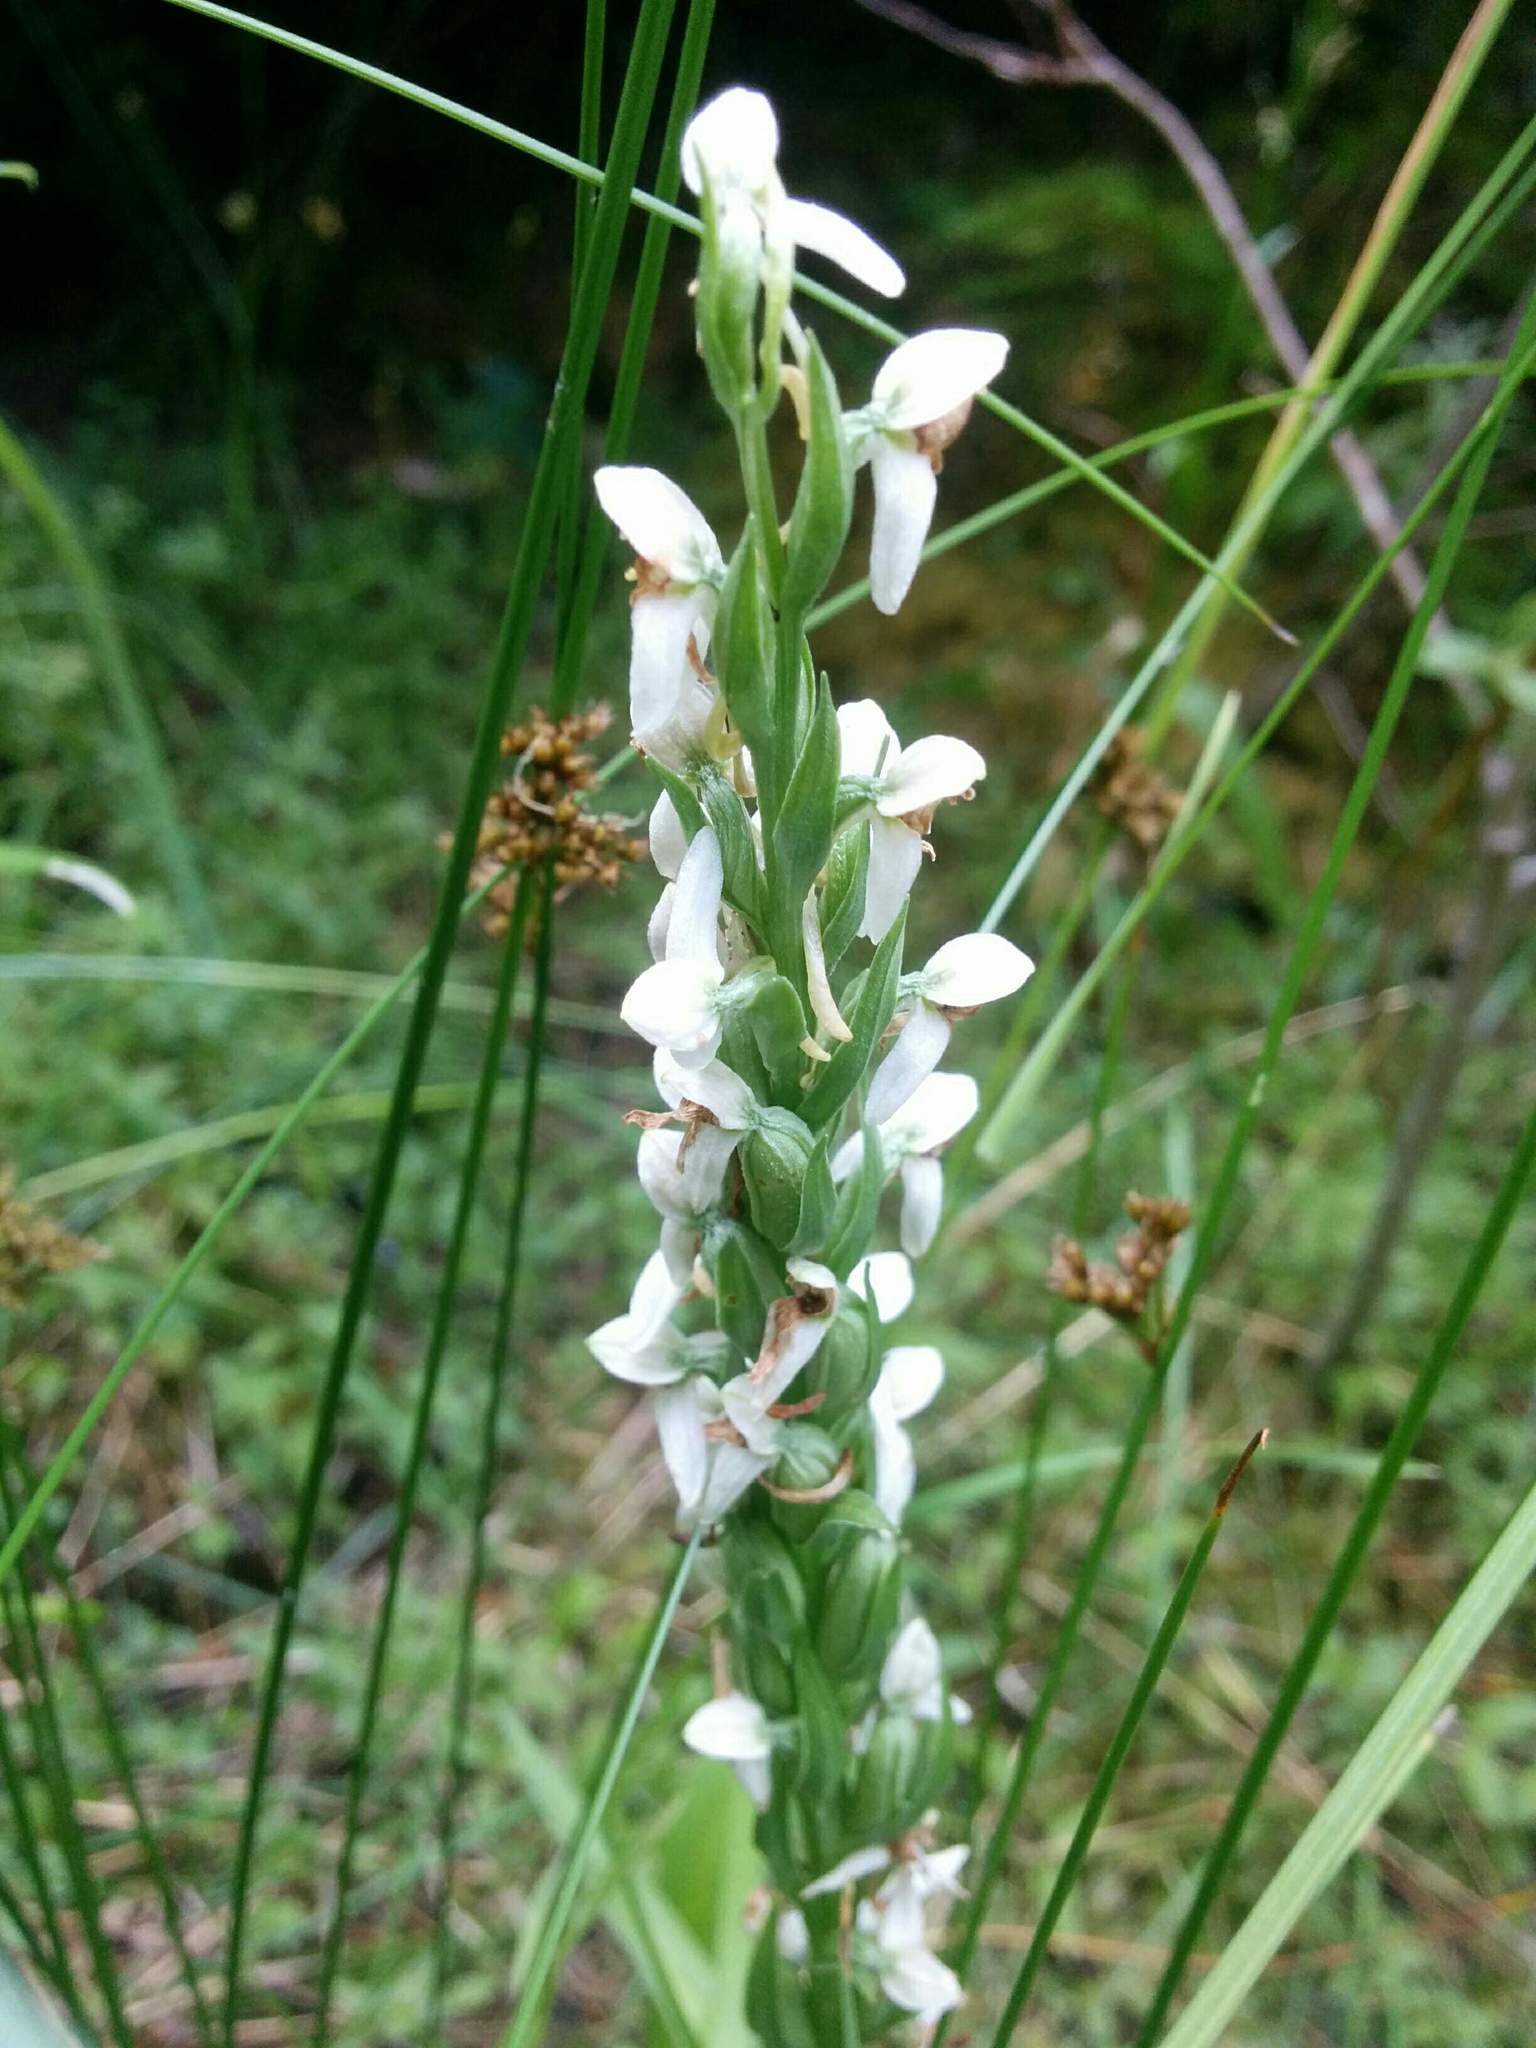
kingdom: Plantae
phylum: Tracheophyta
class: Liliopsida
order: Asparagales
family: Orchidaceae
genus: Platanthera
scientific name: Platanthera dilatata
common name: Bog candles
